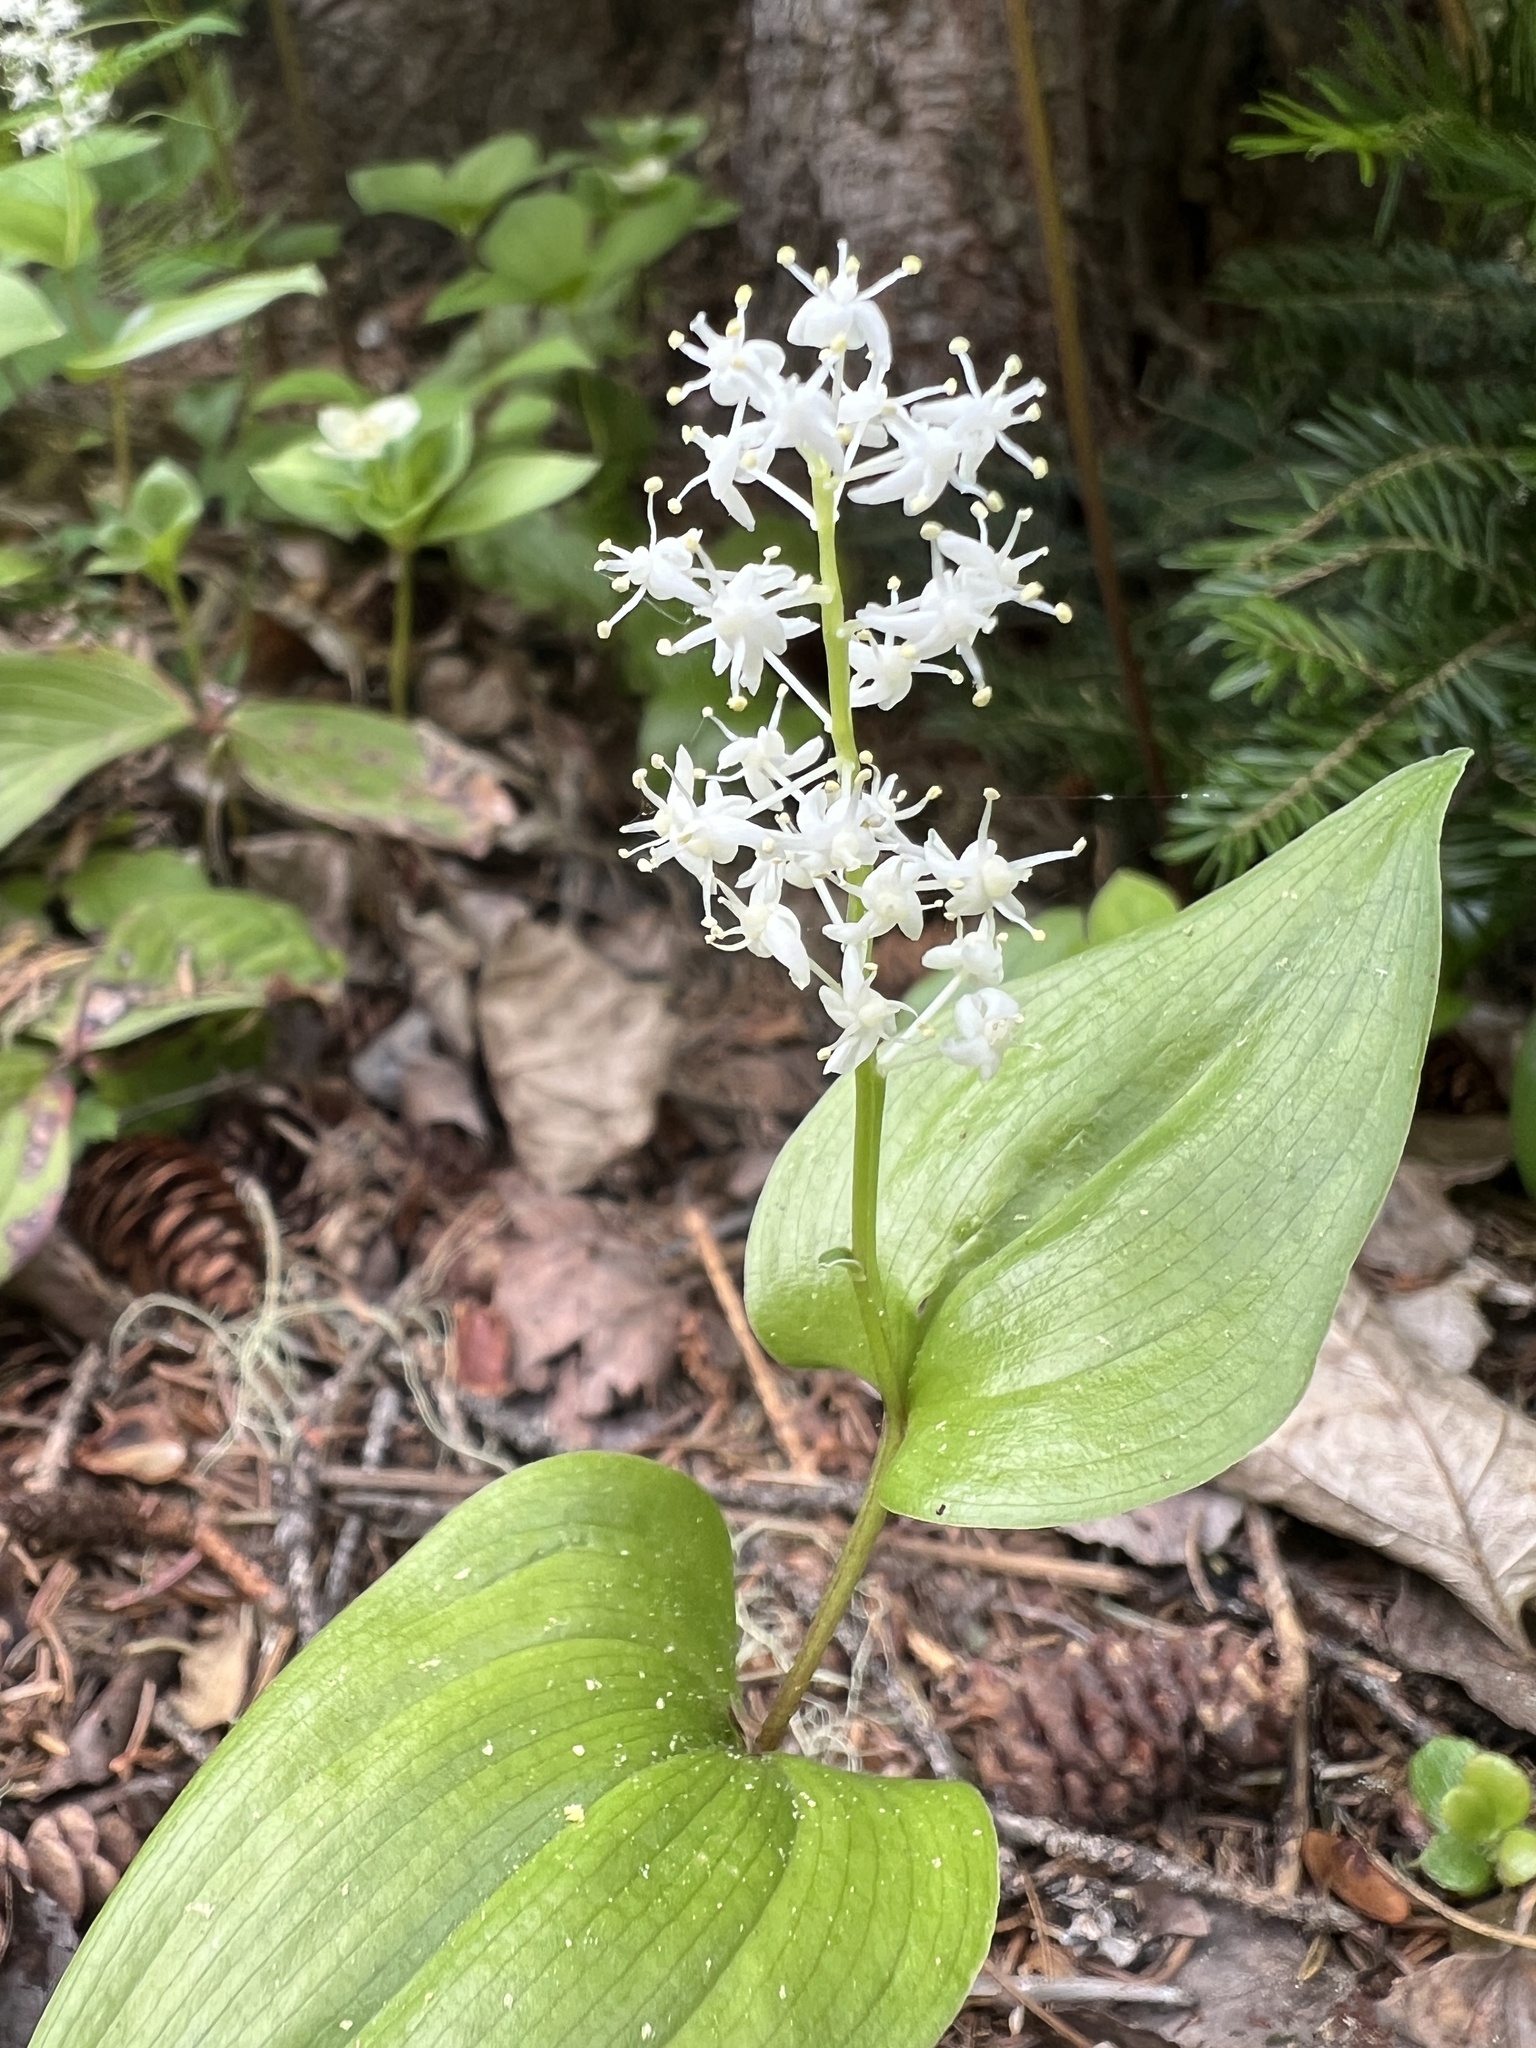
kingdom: Plantae
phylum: Tracheophyta
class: Liliopsida
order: Asparagales
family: Asparagaceae
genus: Maianthemum
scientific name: Maianthemum canadense
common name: False lily-of-the-valley
